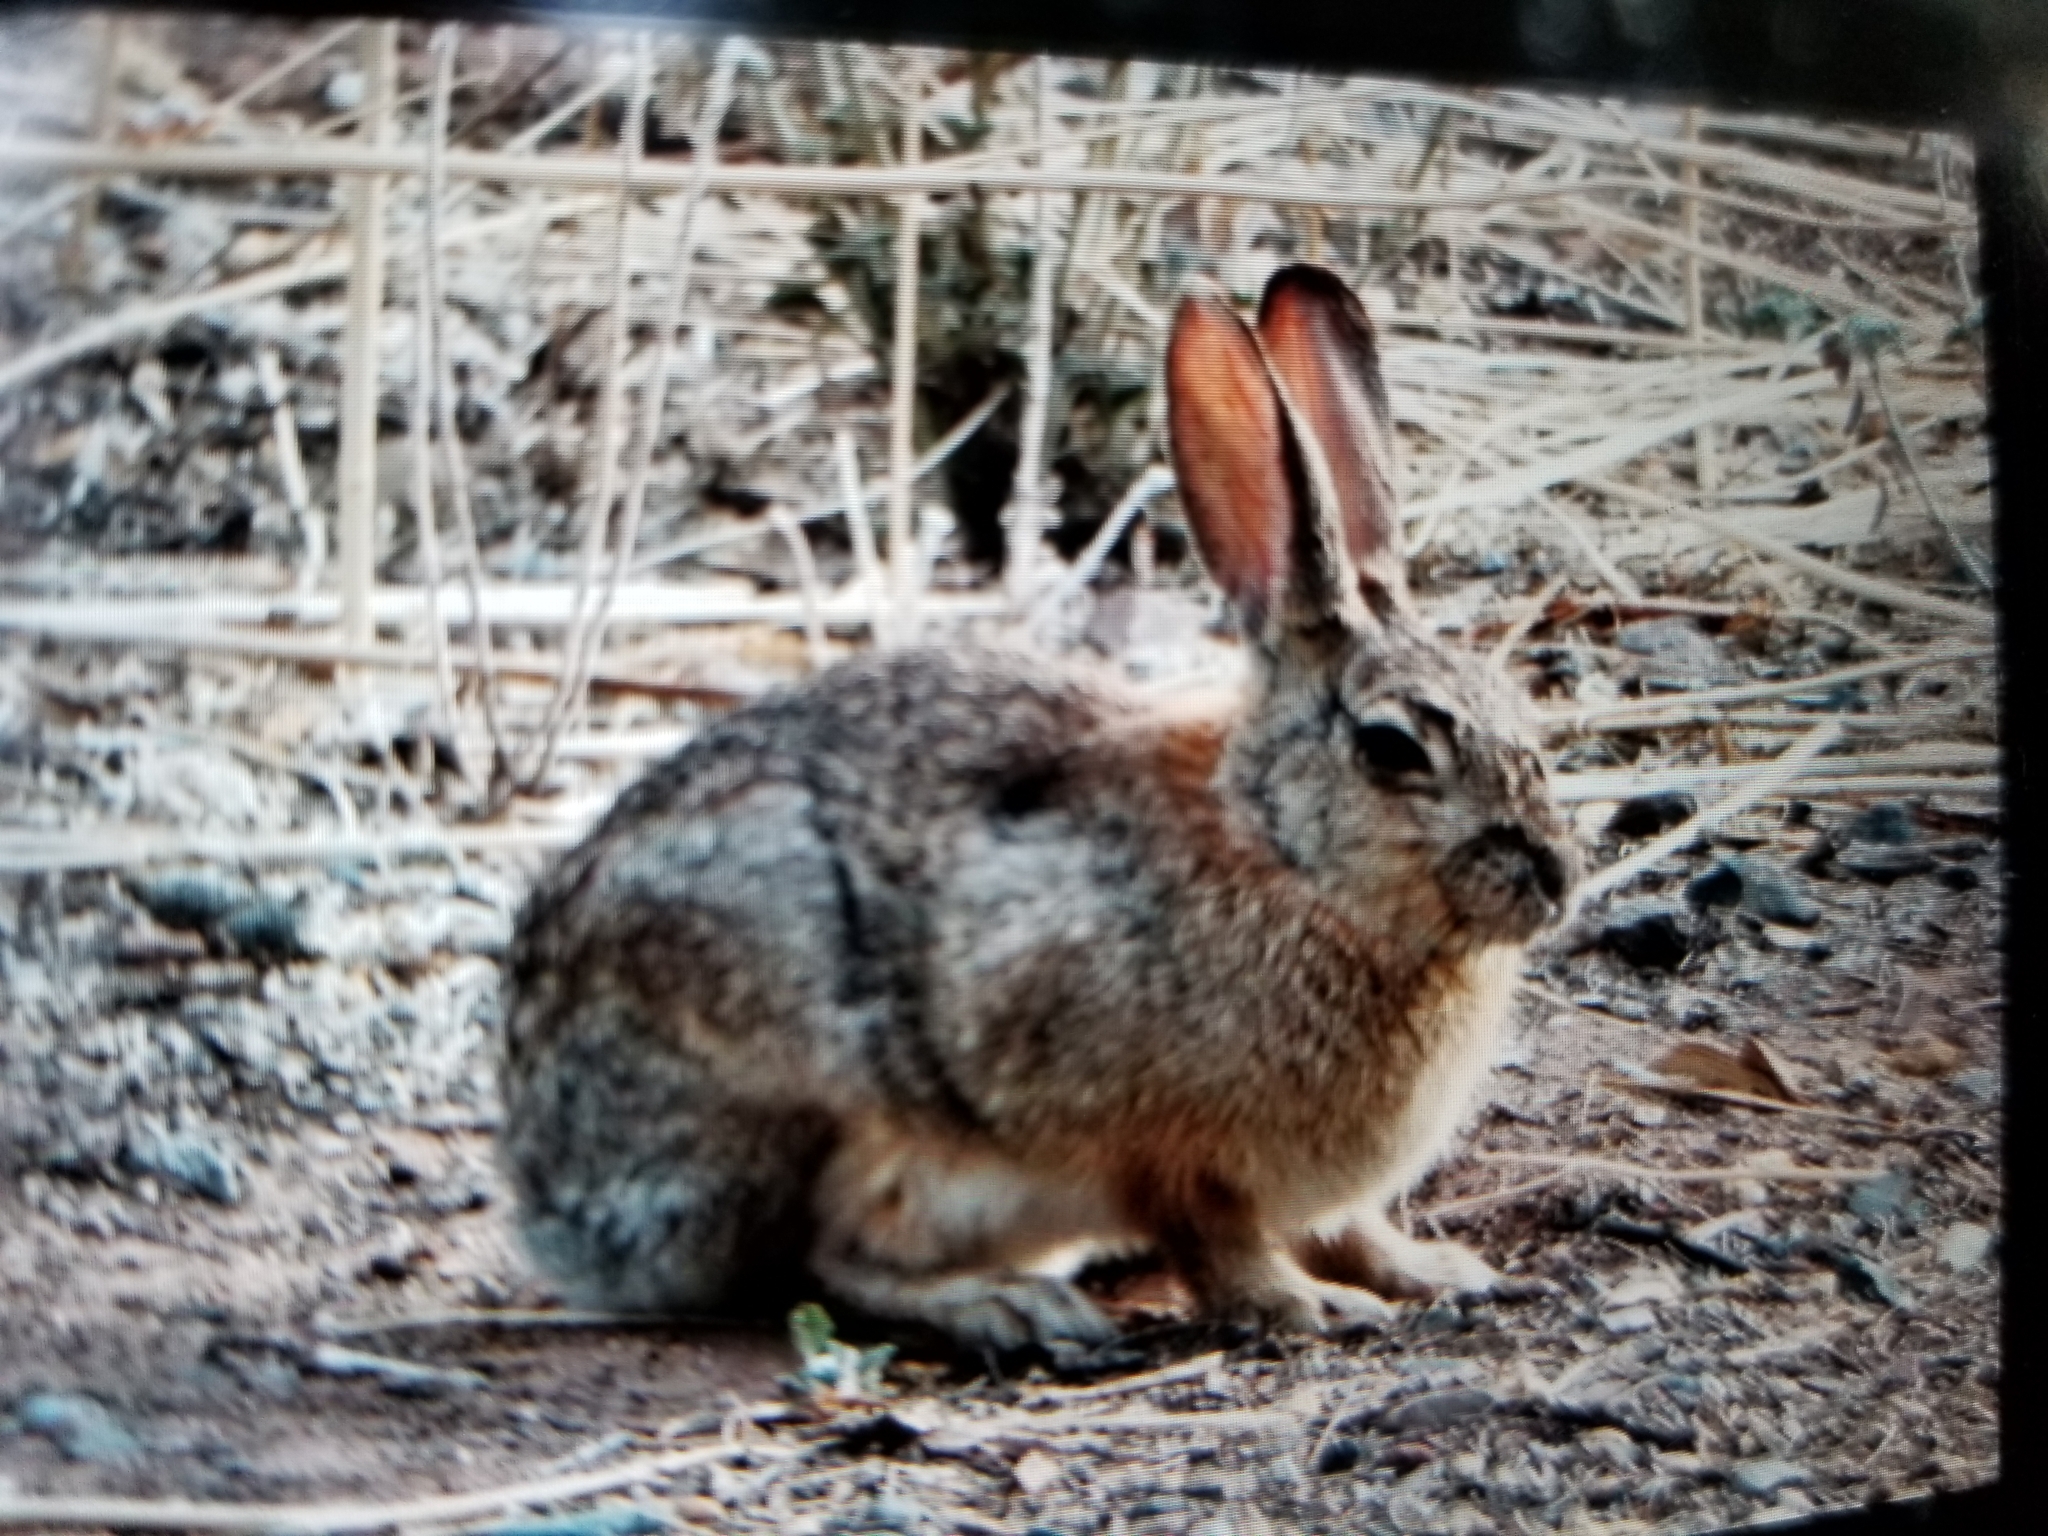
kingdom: Animalia
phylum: Chordata
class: Mammalia
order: Lagomorpha
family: Leporidae
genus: Sylvilagus
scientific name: Sylvilagus audubonii
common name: Desert cottontail
